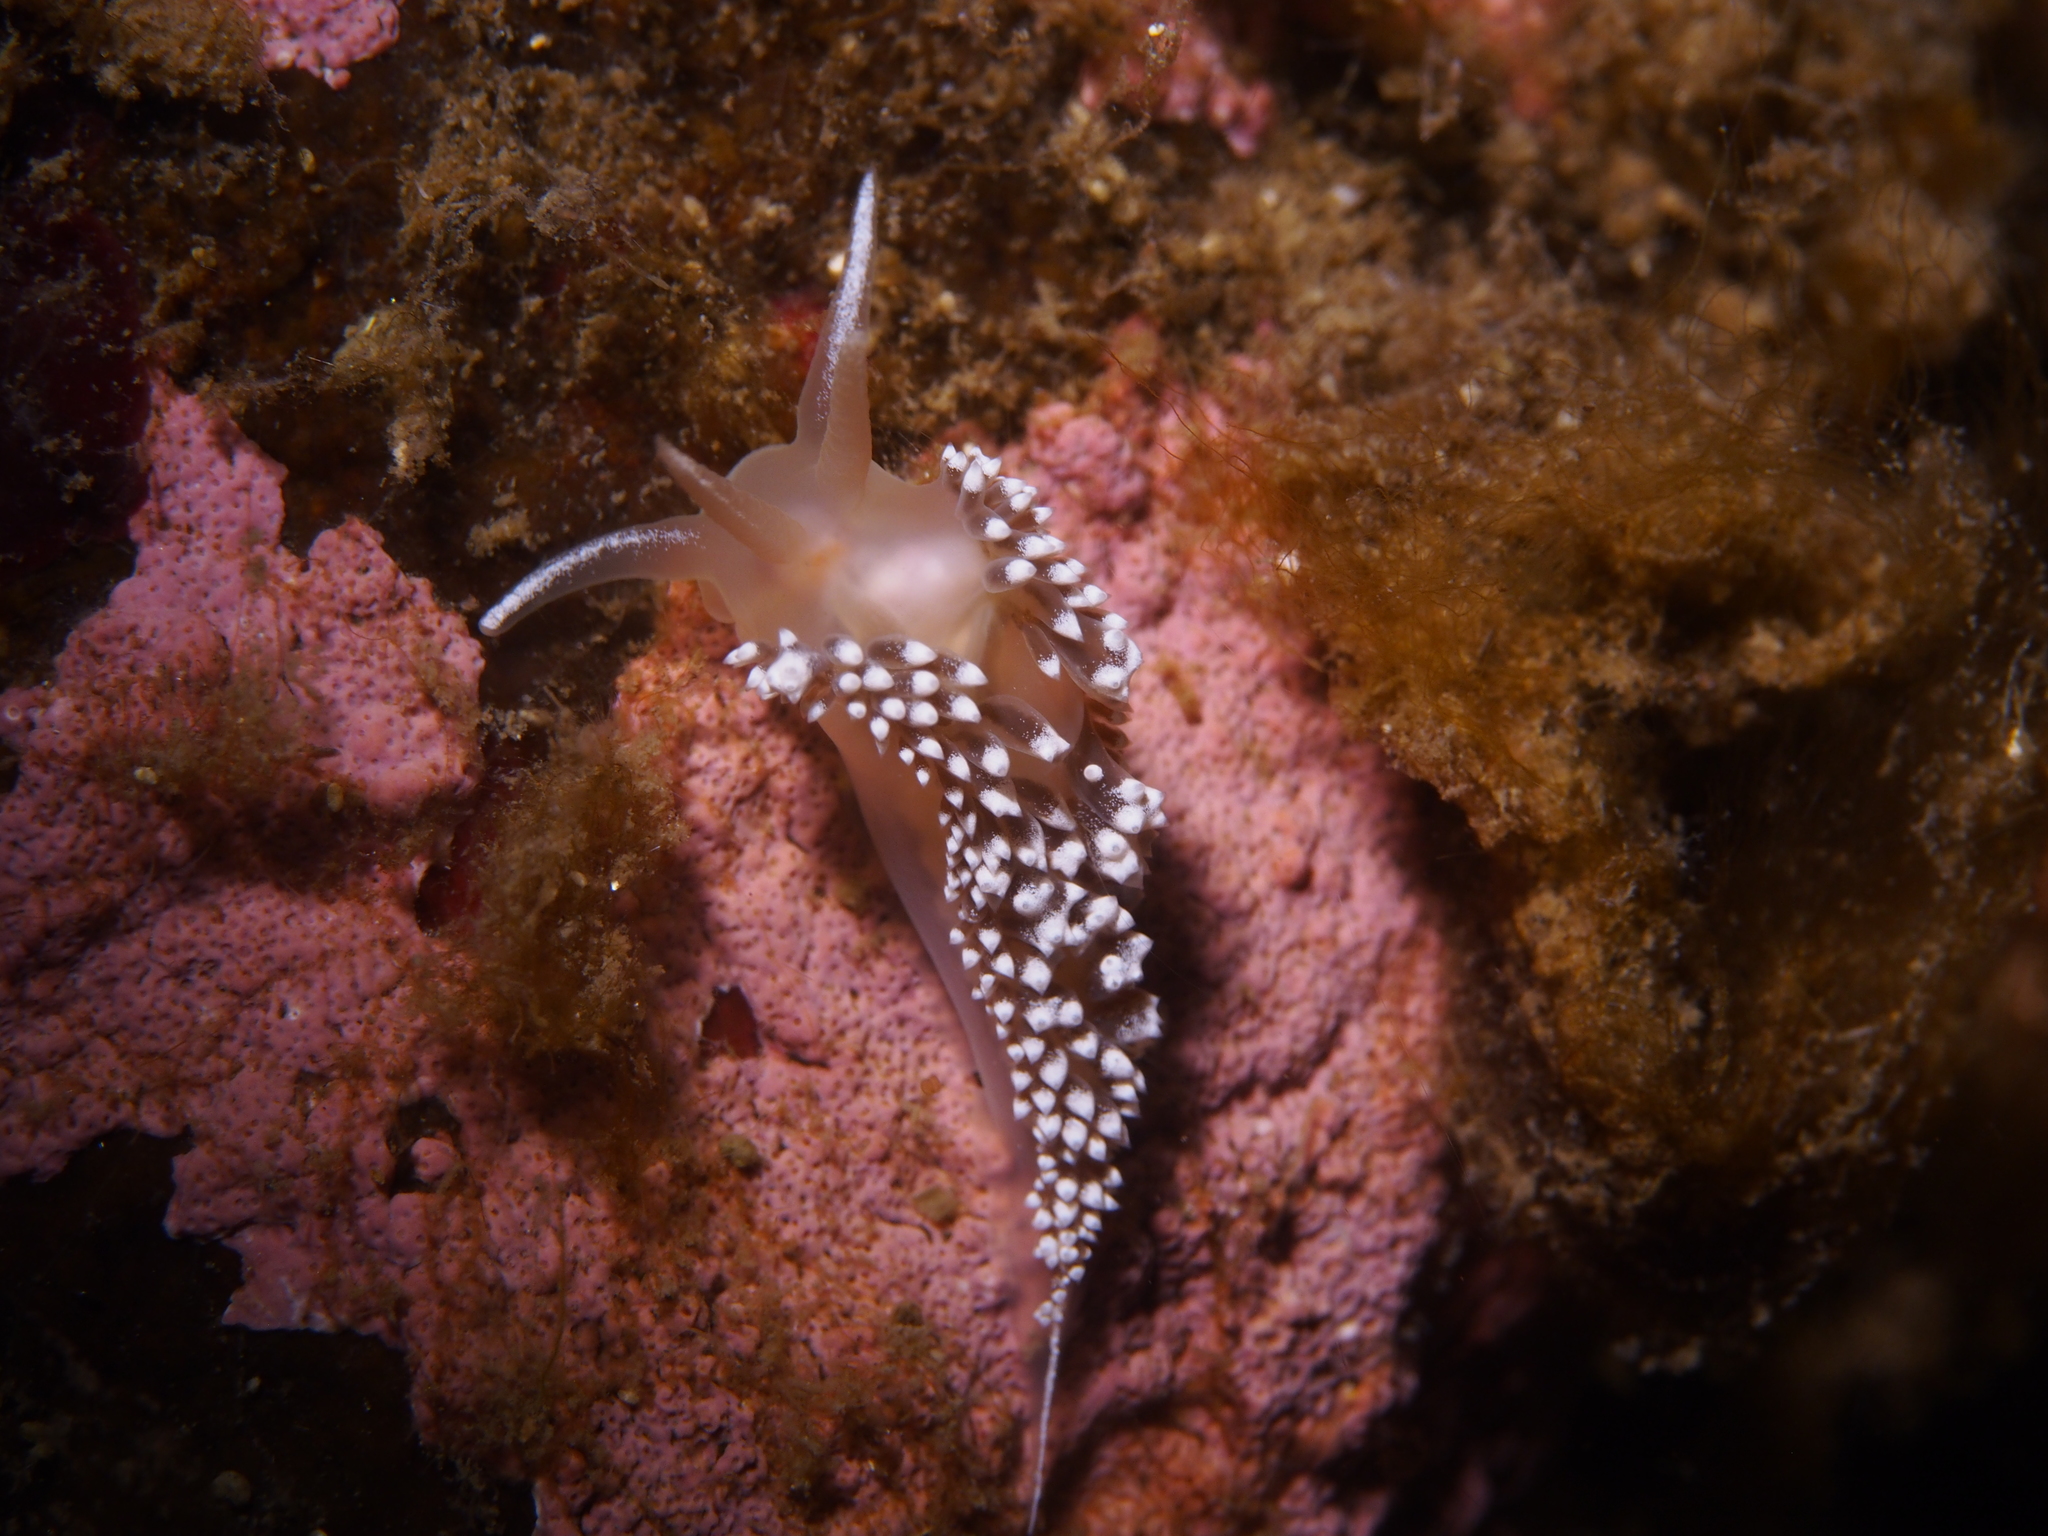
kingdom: Animalia
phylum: Mollusca
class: Gastropoda
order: Nudibranchia
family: Coryphellidae
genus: Coryphella
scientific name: Coryphella verrucosa
